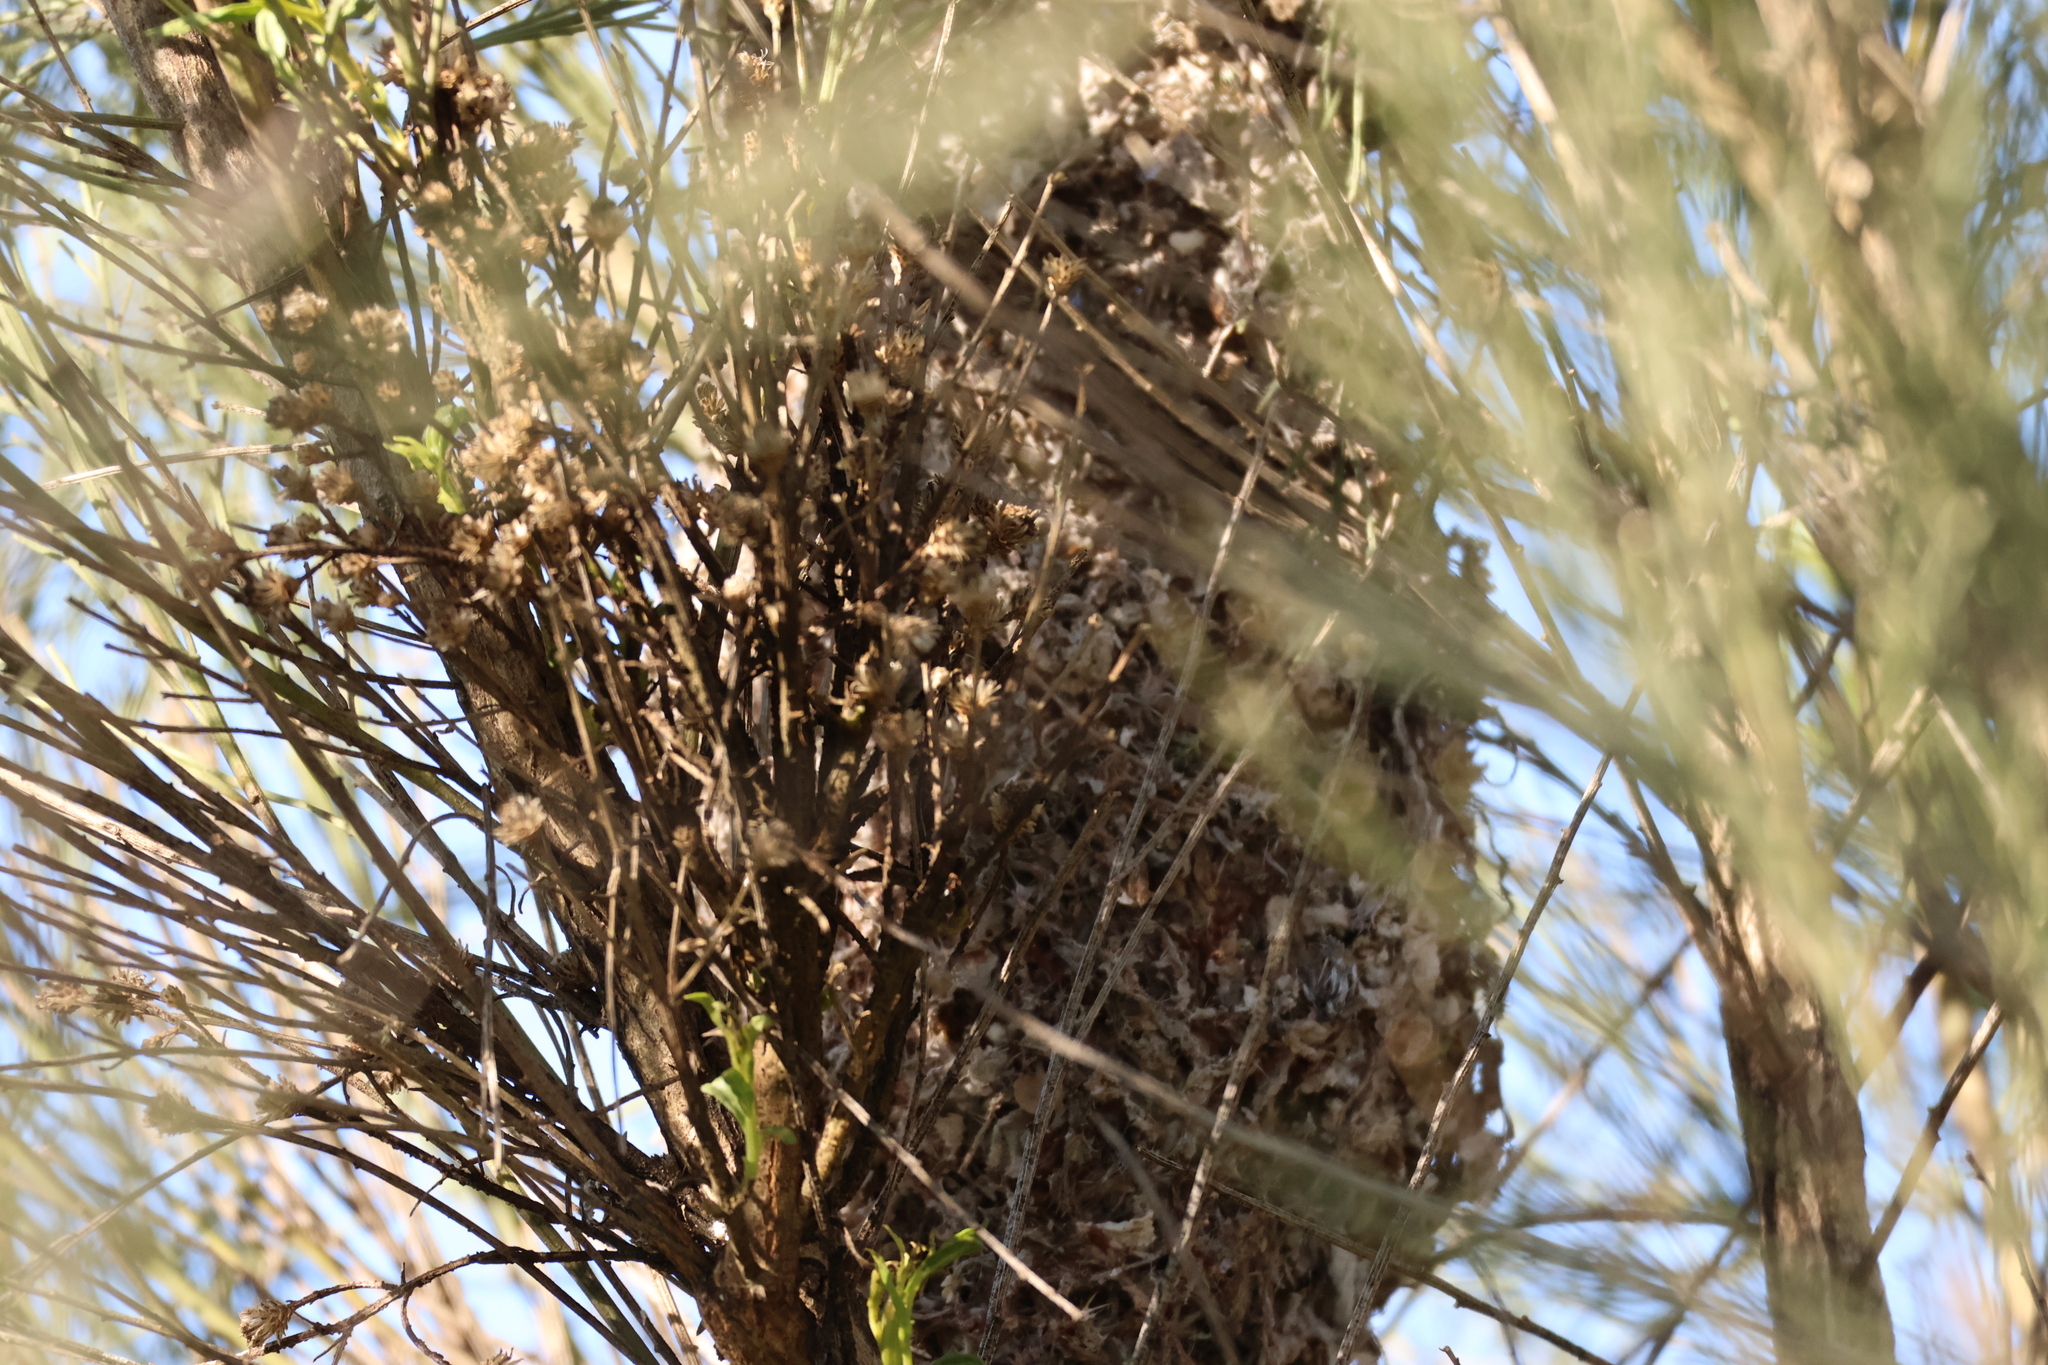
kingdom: Animalia
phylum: Chordata
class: Aves
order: Passeriformes
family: Aegithalidae
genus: Psaltriparus
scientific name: Psaltriparus minimus
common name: American bushtit
